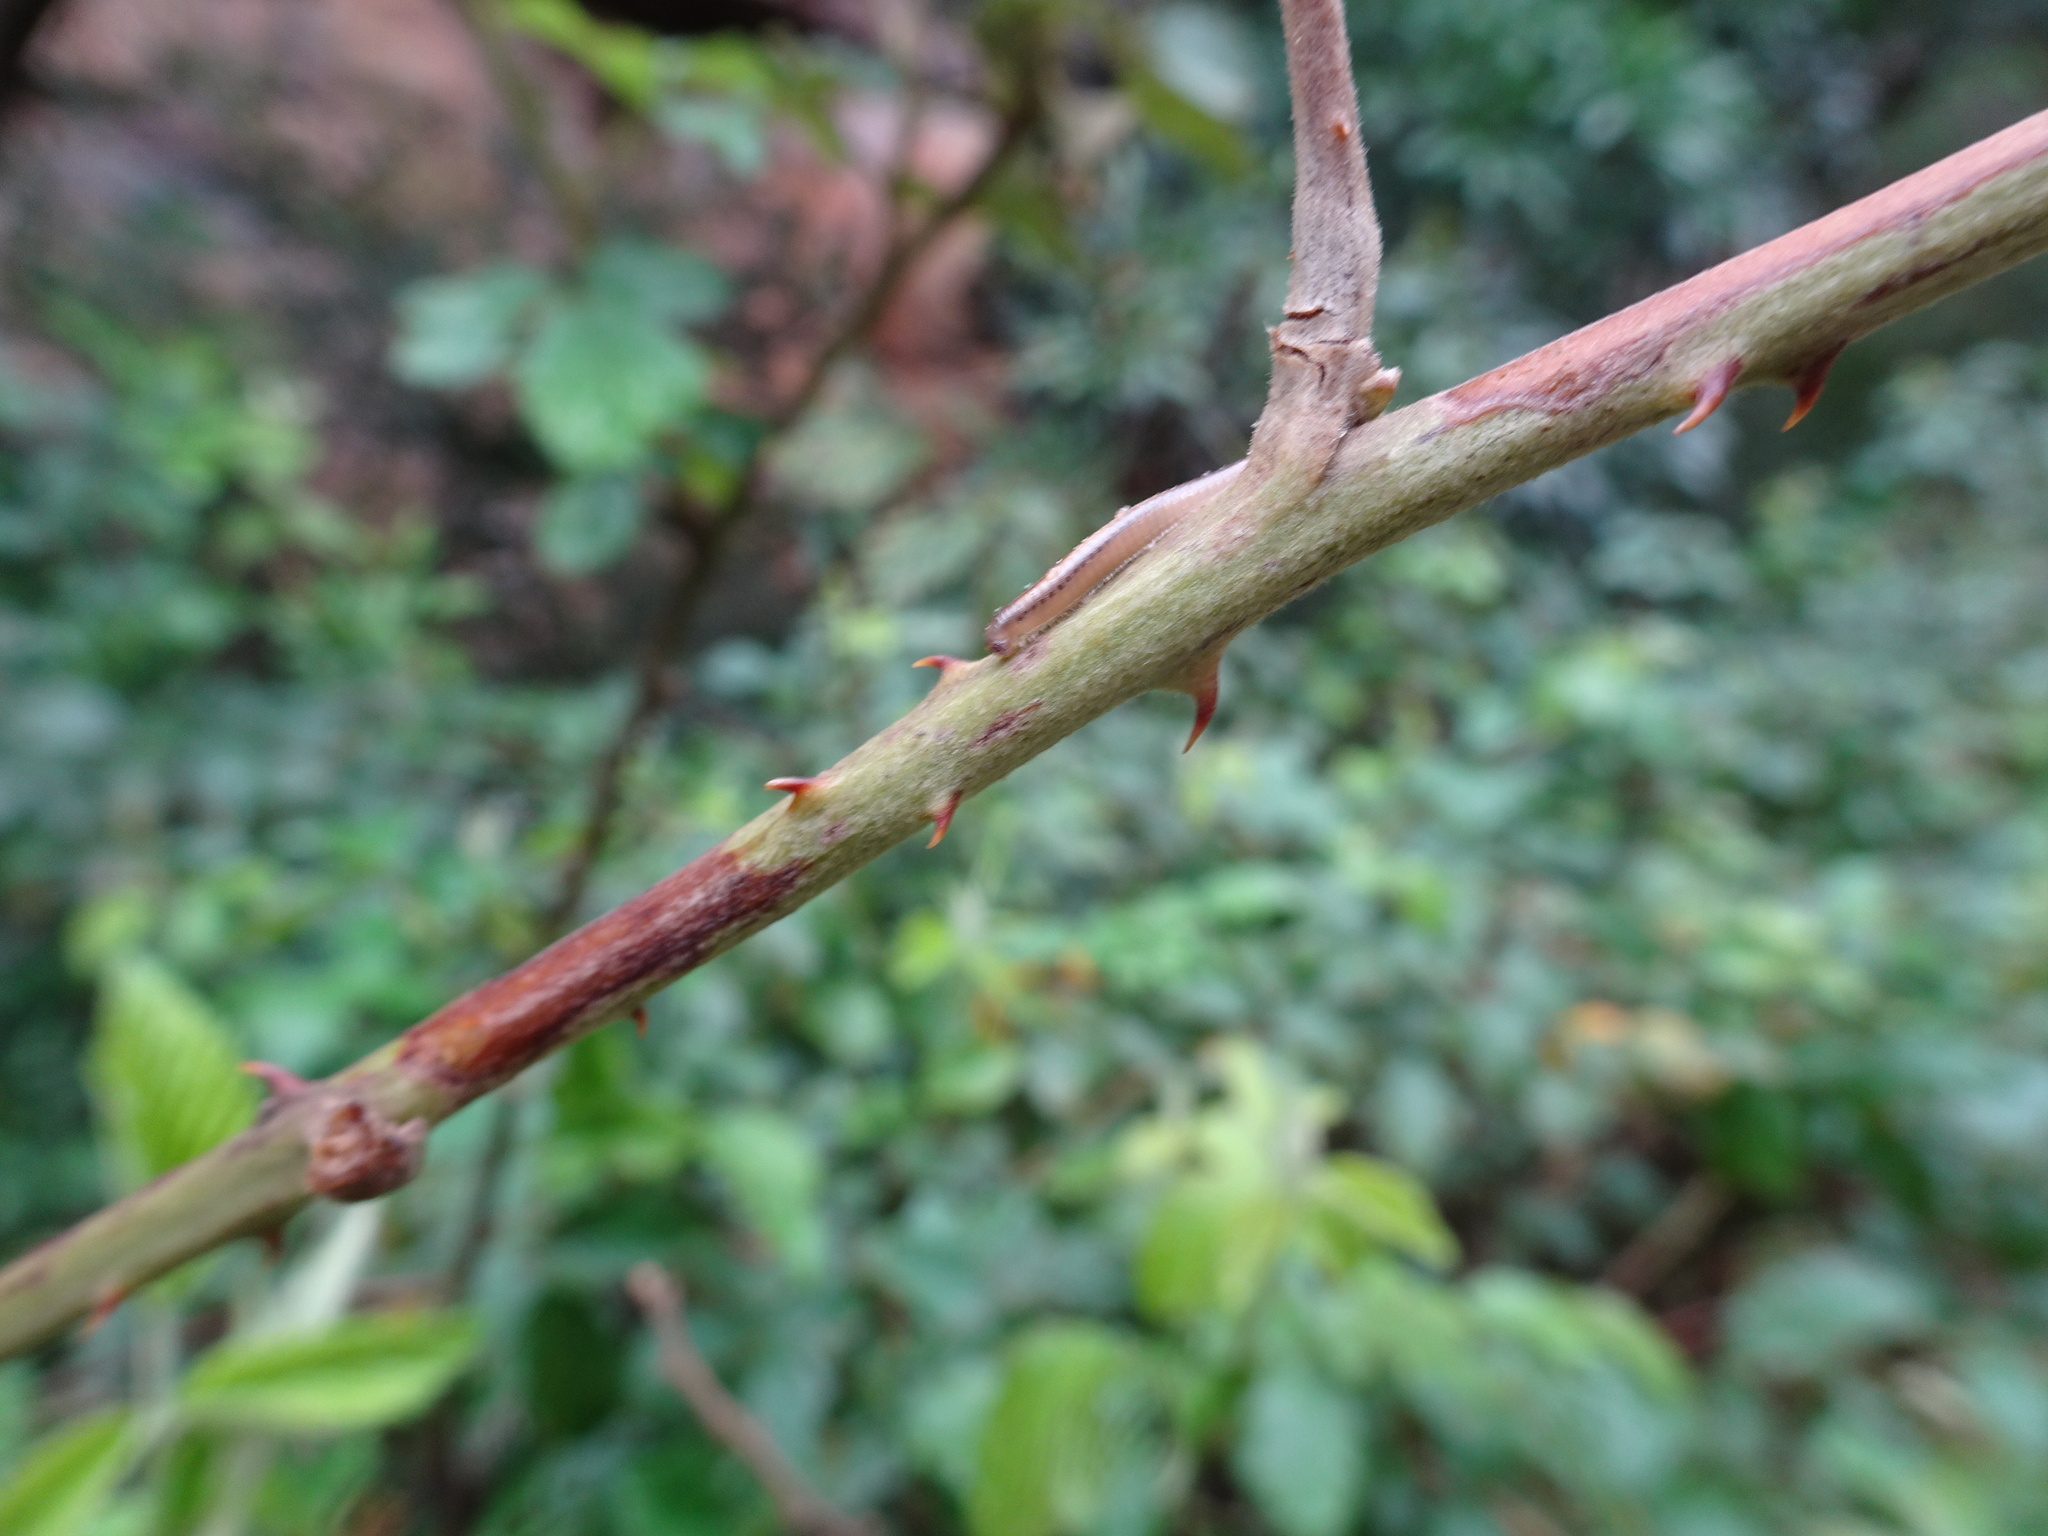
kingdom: Plantae
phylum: Tracheophyta
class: Magnoliopsida
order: Rosales
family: Rosaceae
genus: Rubus
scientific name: Rubus rigidus
